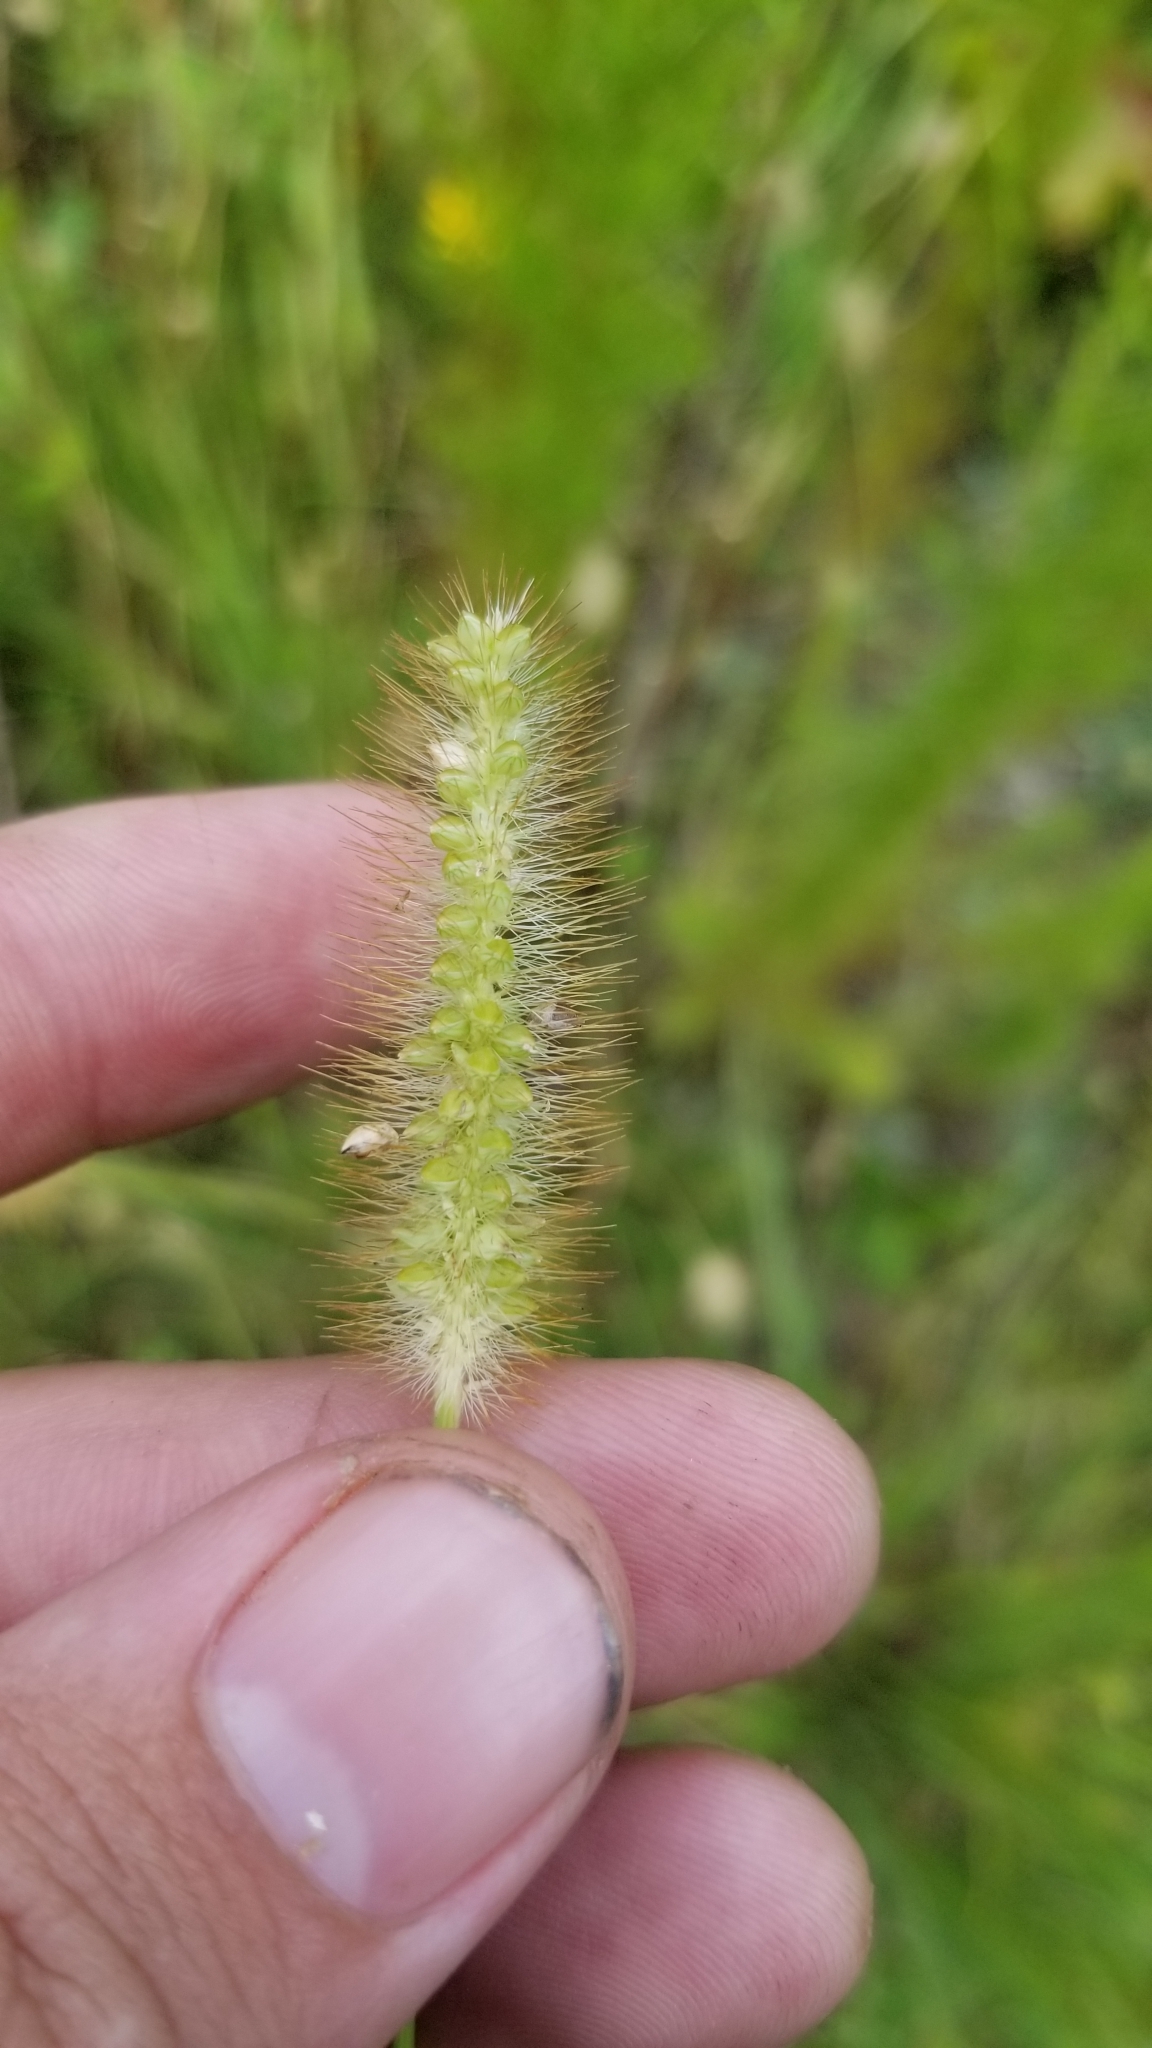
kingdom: Plantae
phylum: Tracheophyta
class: Liliopsida
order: Poales
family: Poaceae
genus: Setaria
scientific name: Setaria pumila
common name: Yellow bristle-grass
